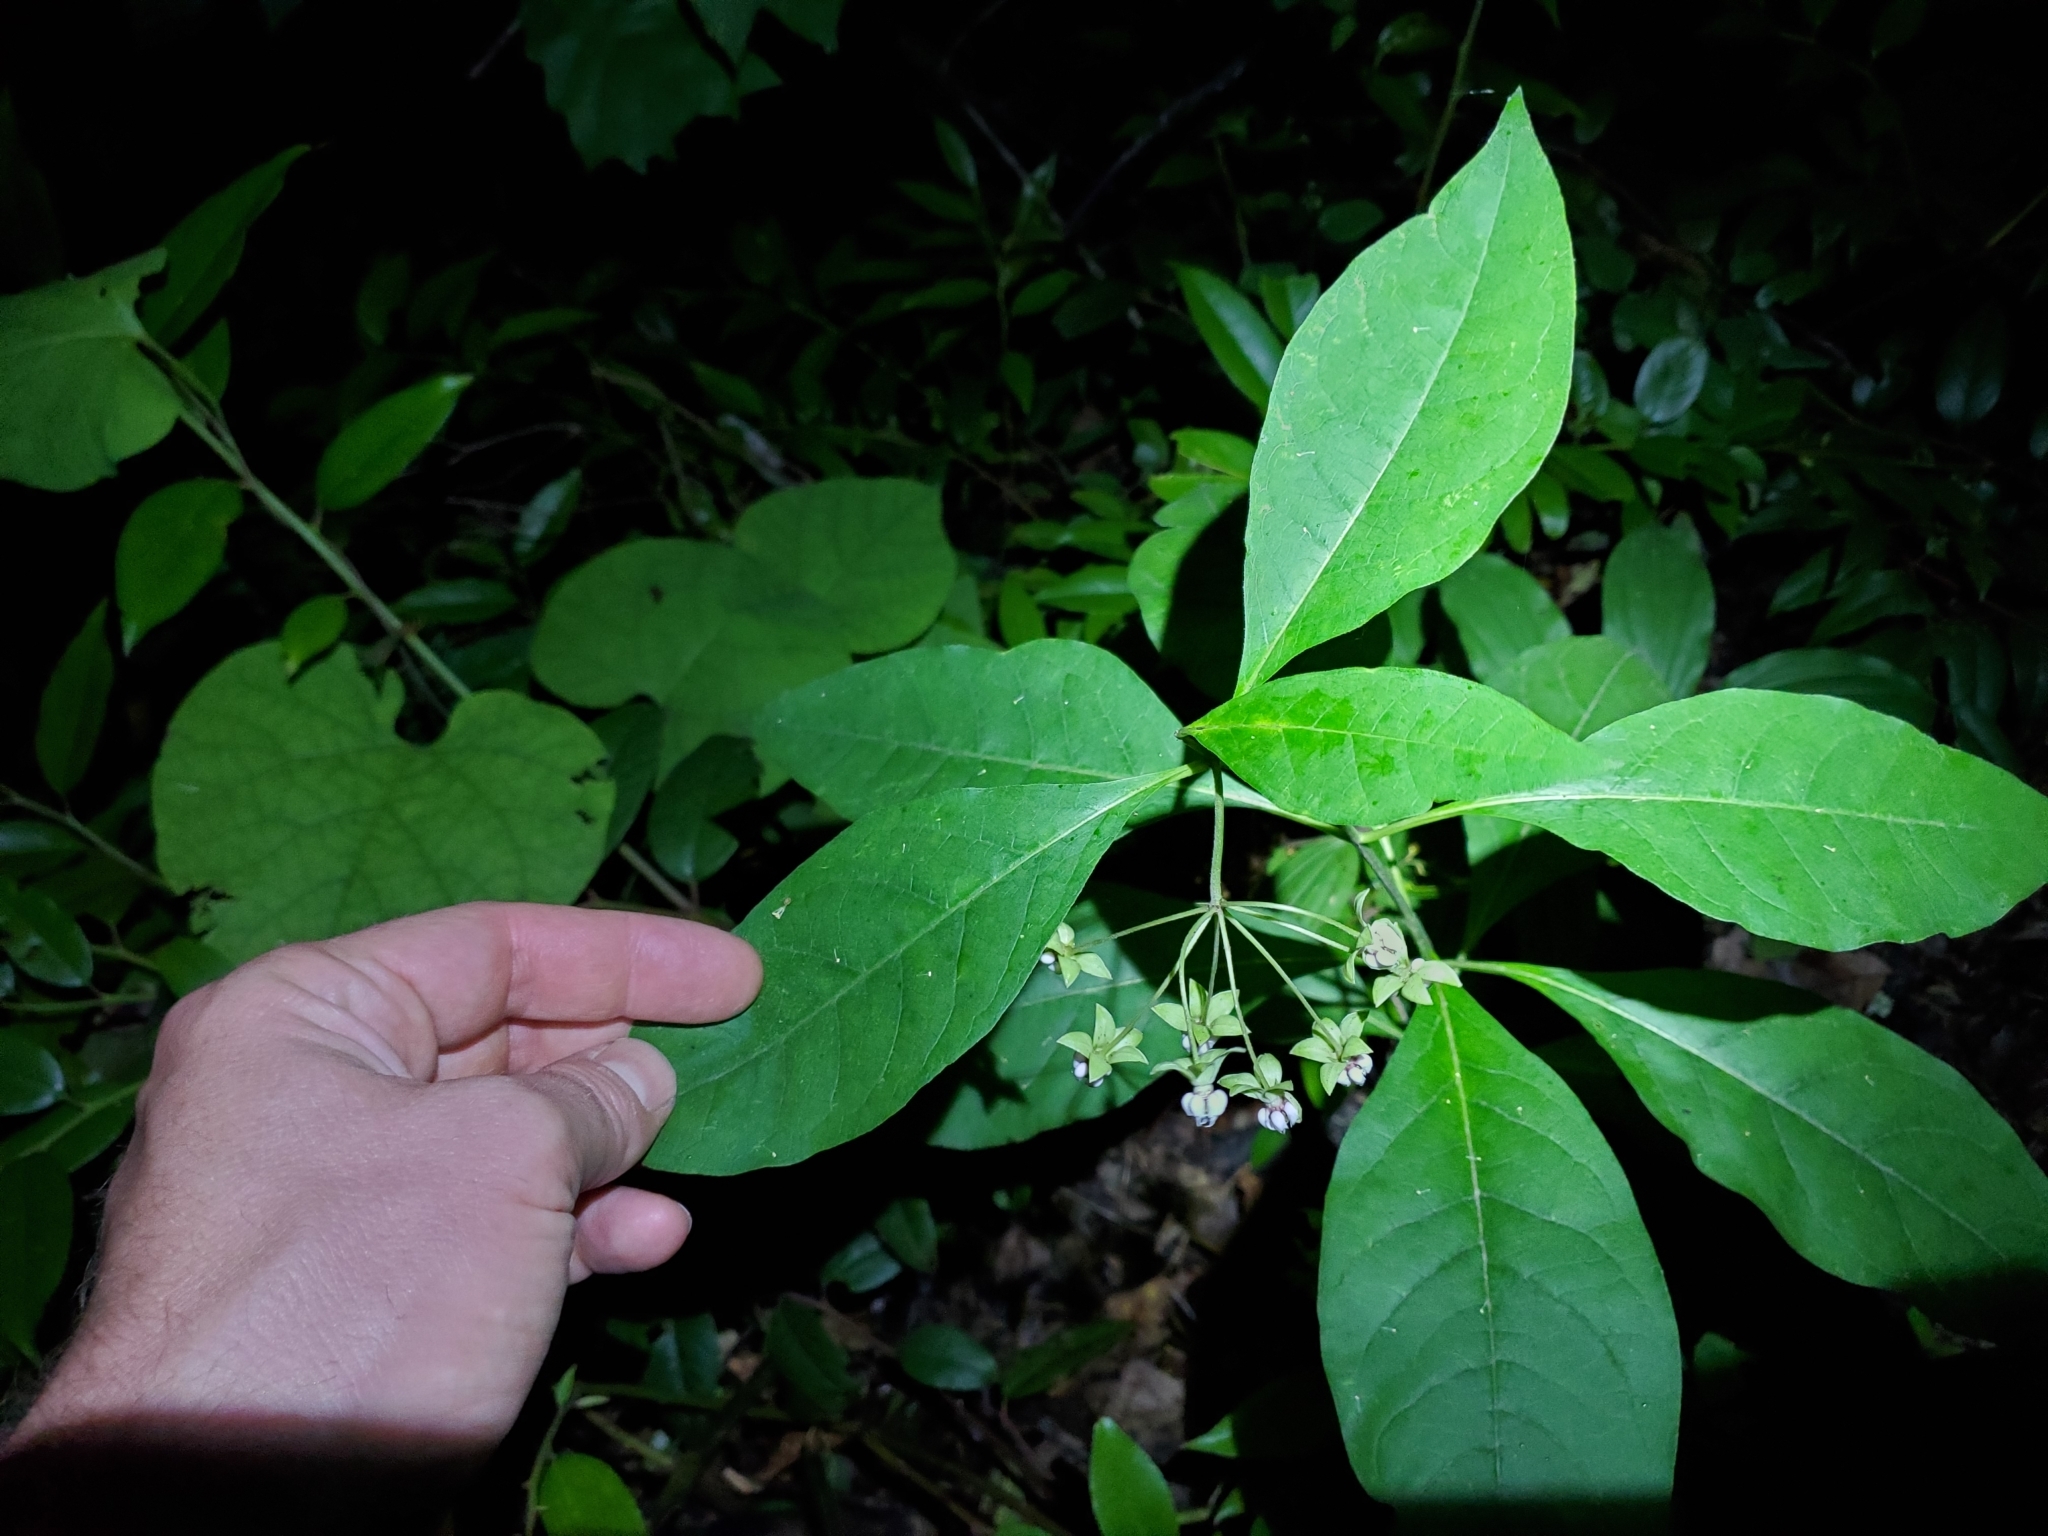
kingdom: Plantae
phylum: Tracheophyta
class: Magnoliopsida
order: Gentianales
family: Apocynaceae
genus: Asclepias
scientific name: Asclepias exaltata
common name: Poke milkweed
